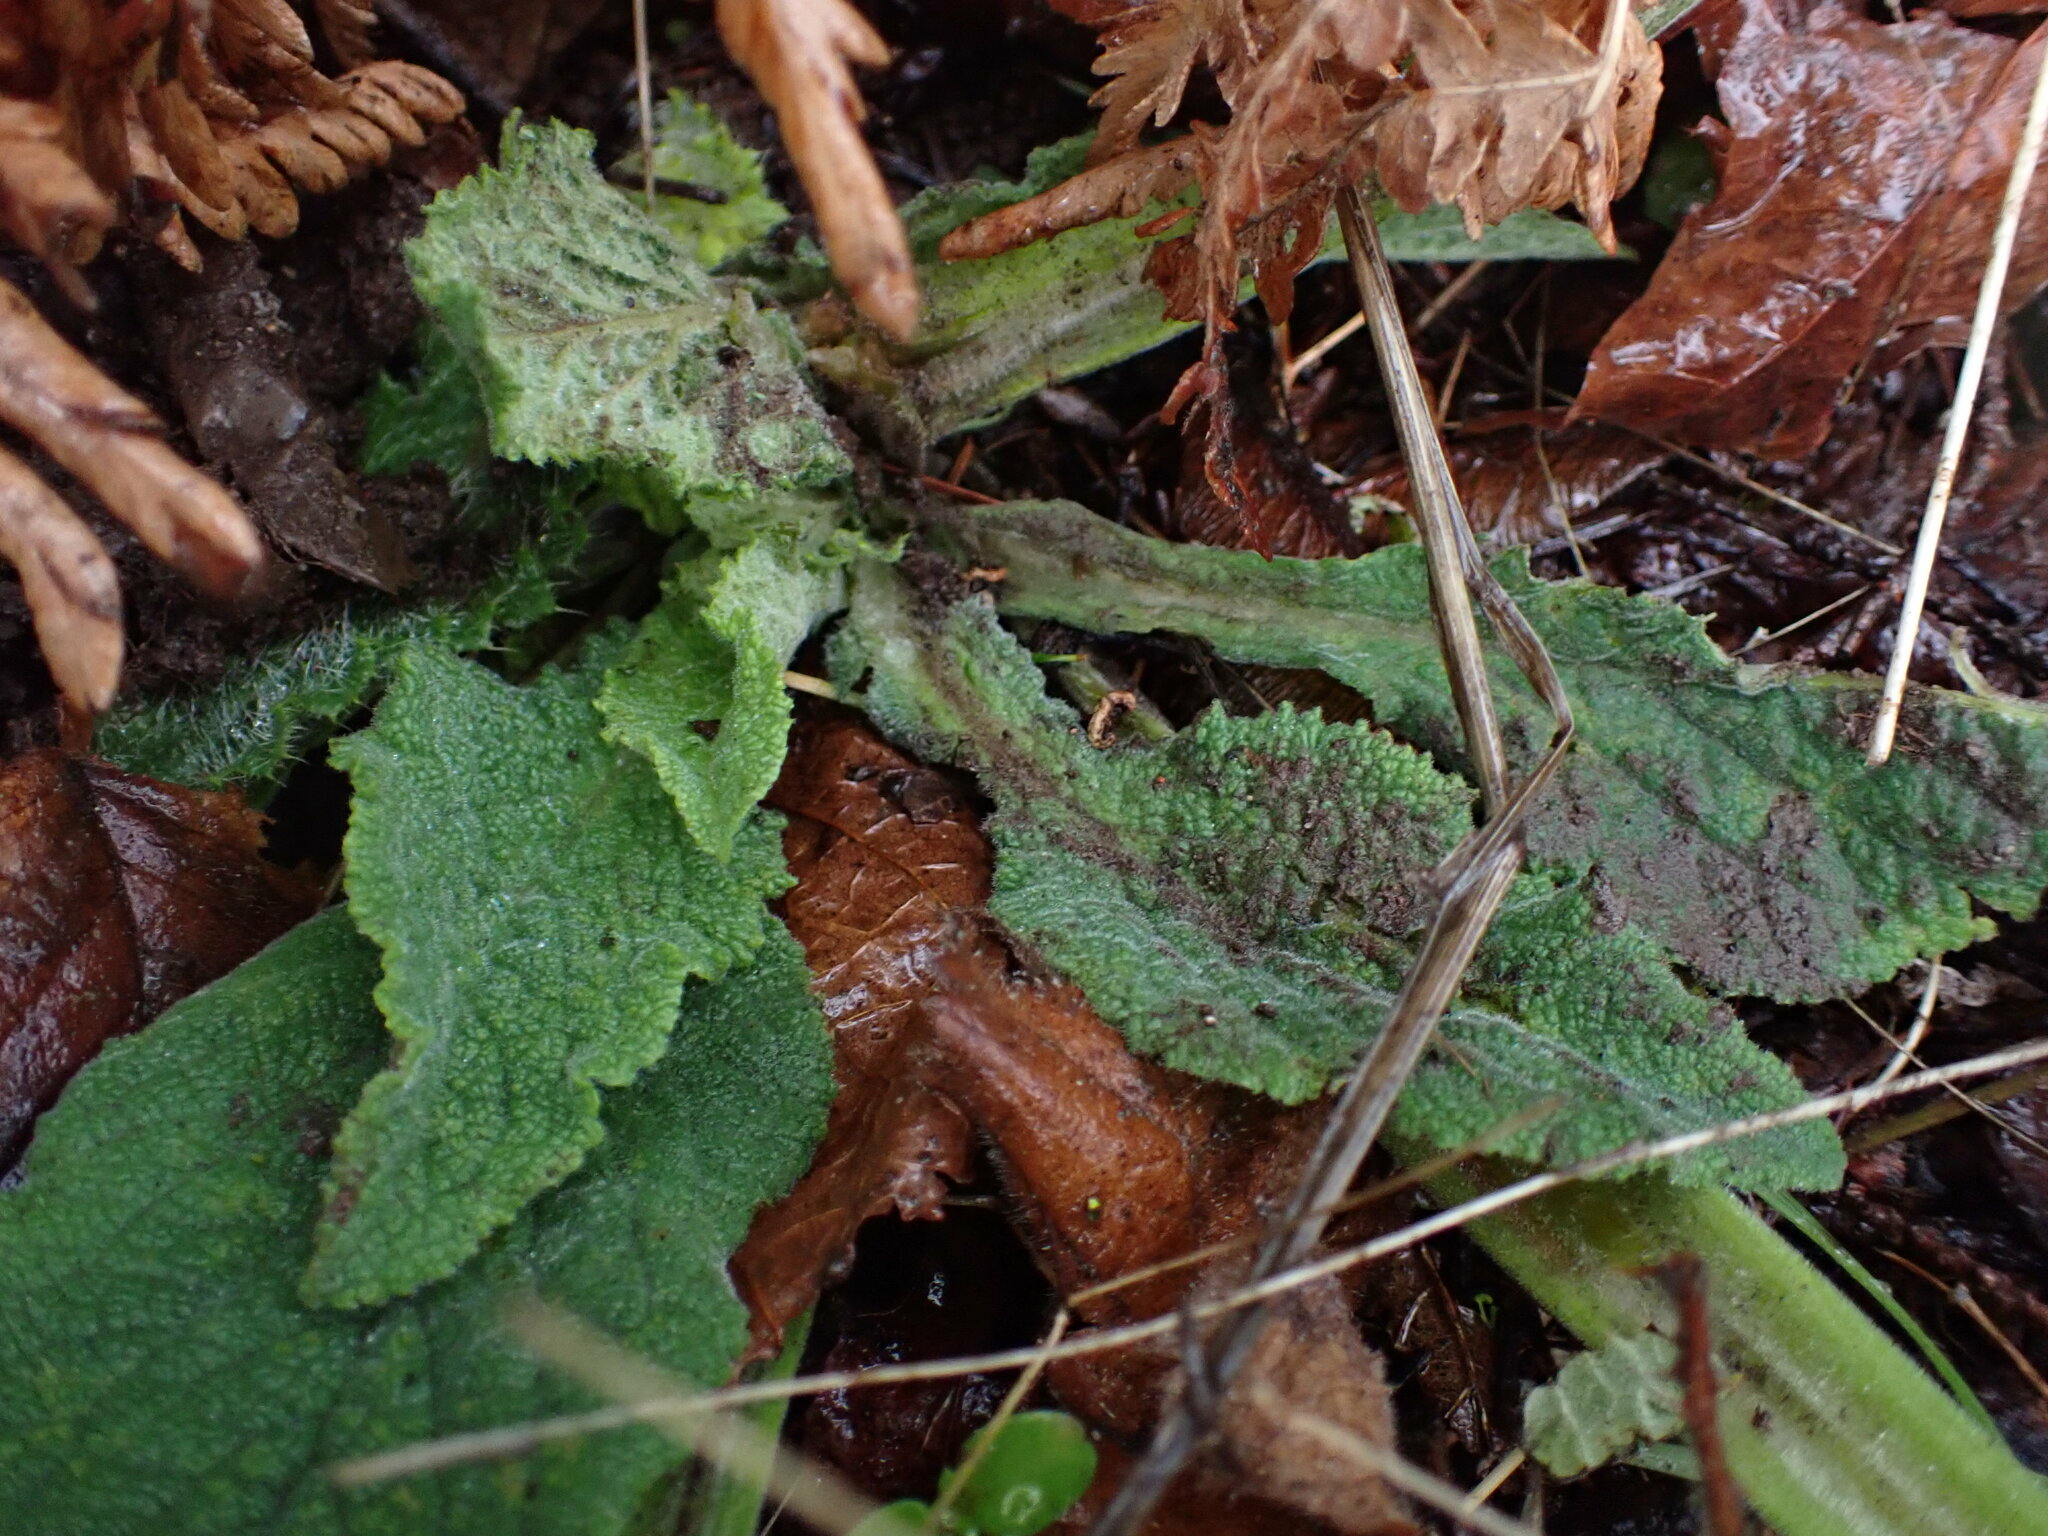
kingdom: Plantae
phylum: Tracheophyta
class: Magnoliopsida
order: Lamiales
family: Plantaginaceae
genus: Digitalis
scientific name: Digitalis purpurea
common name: Foxglove
